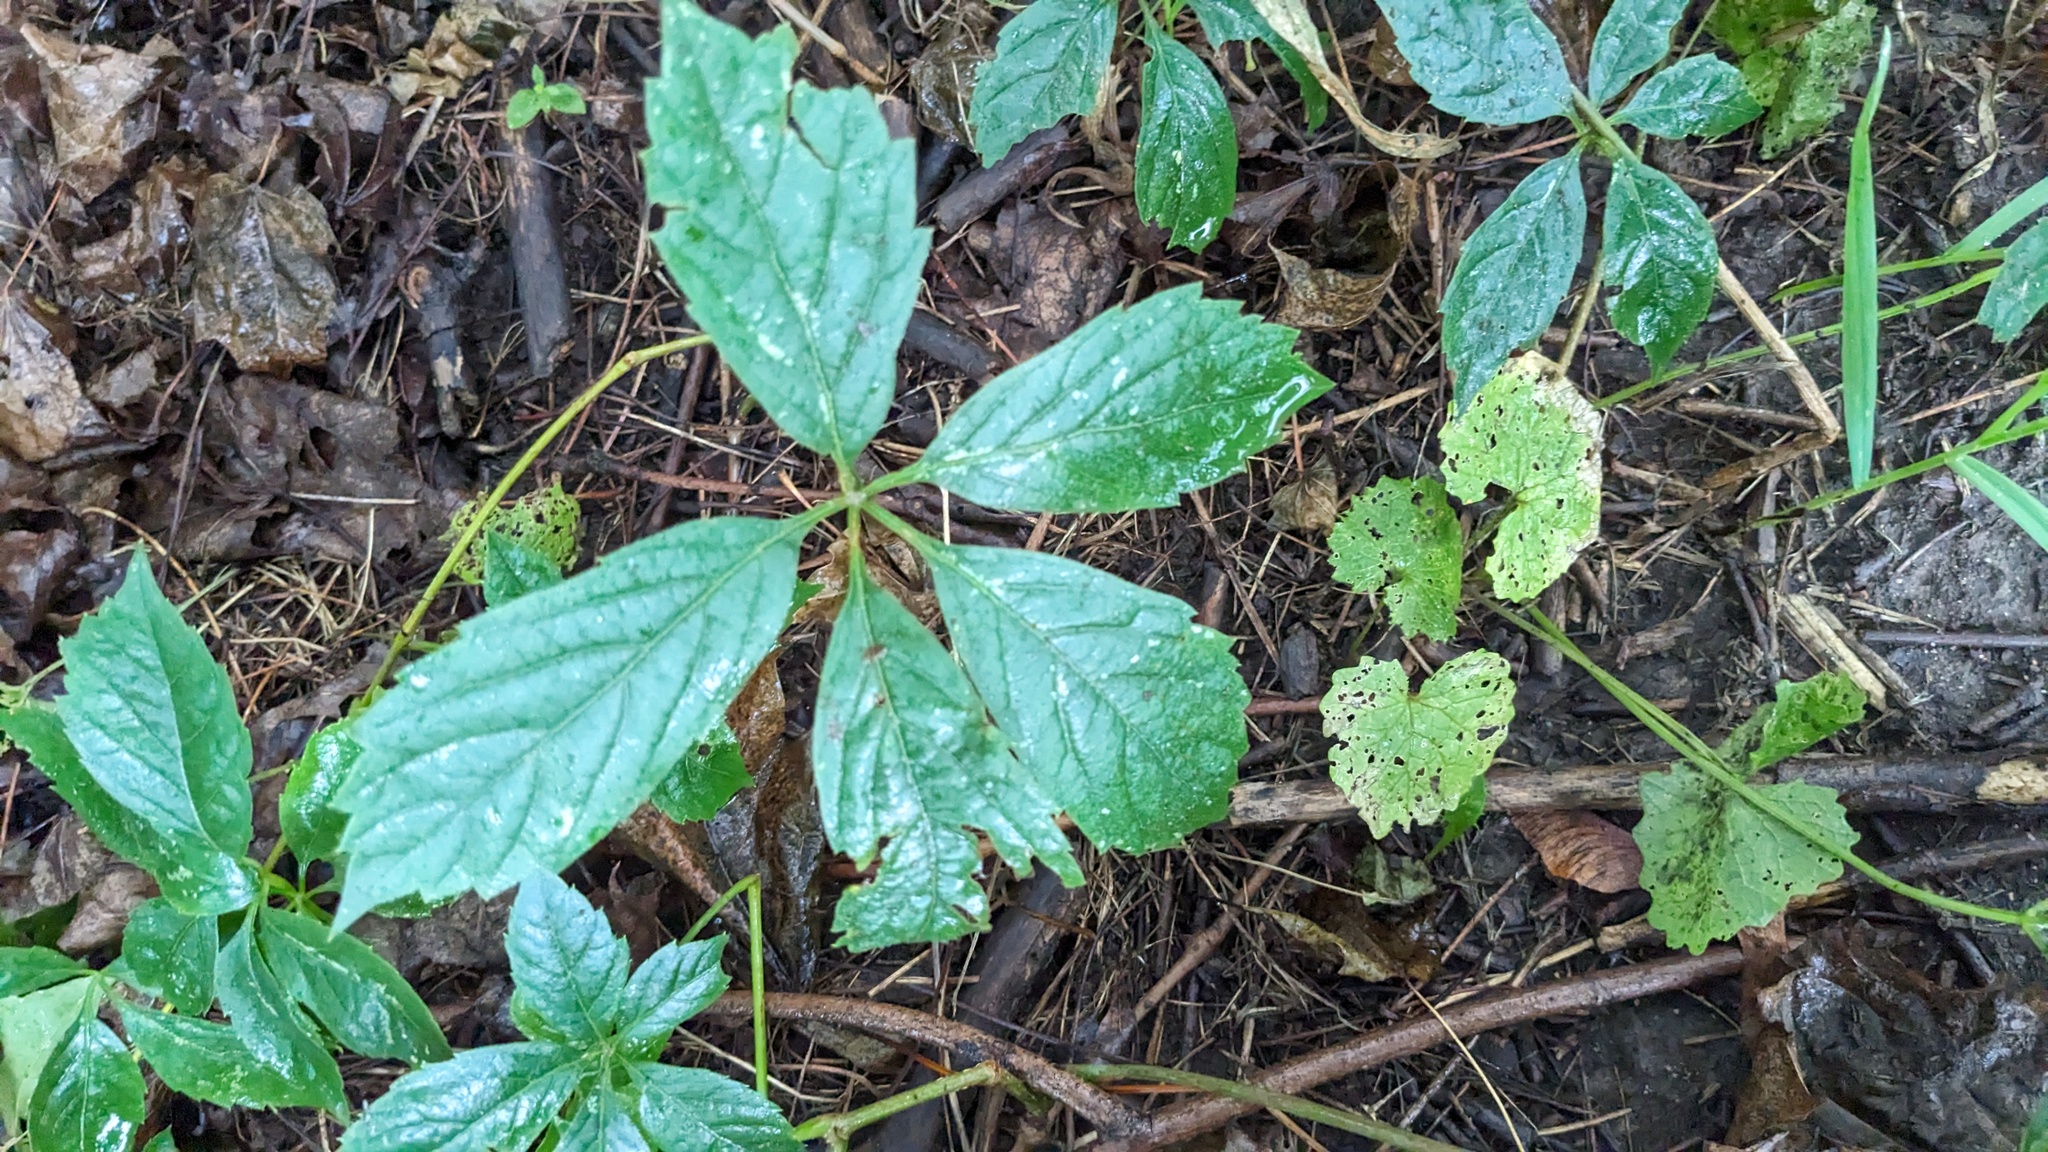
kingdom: Plantae
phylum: Tracheophyta
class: Magnoliopsida
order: Vitales
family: Vitaceae
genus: Parthenocissus
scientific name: Parthenocissus inserta
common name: False virginia-creeper
